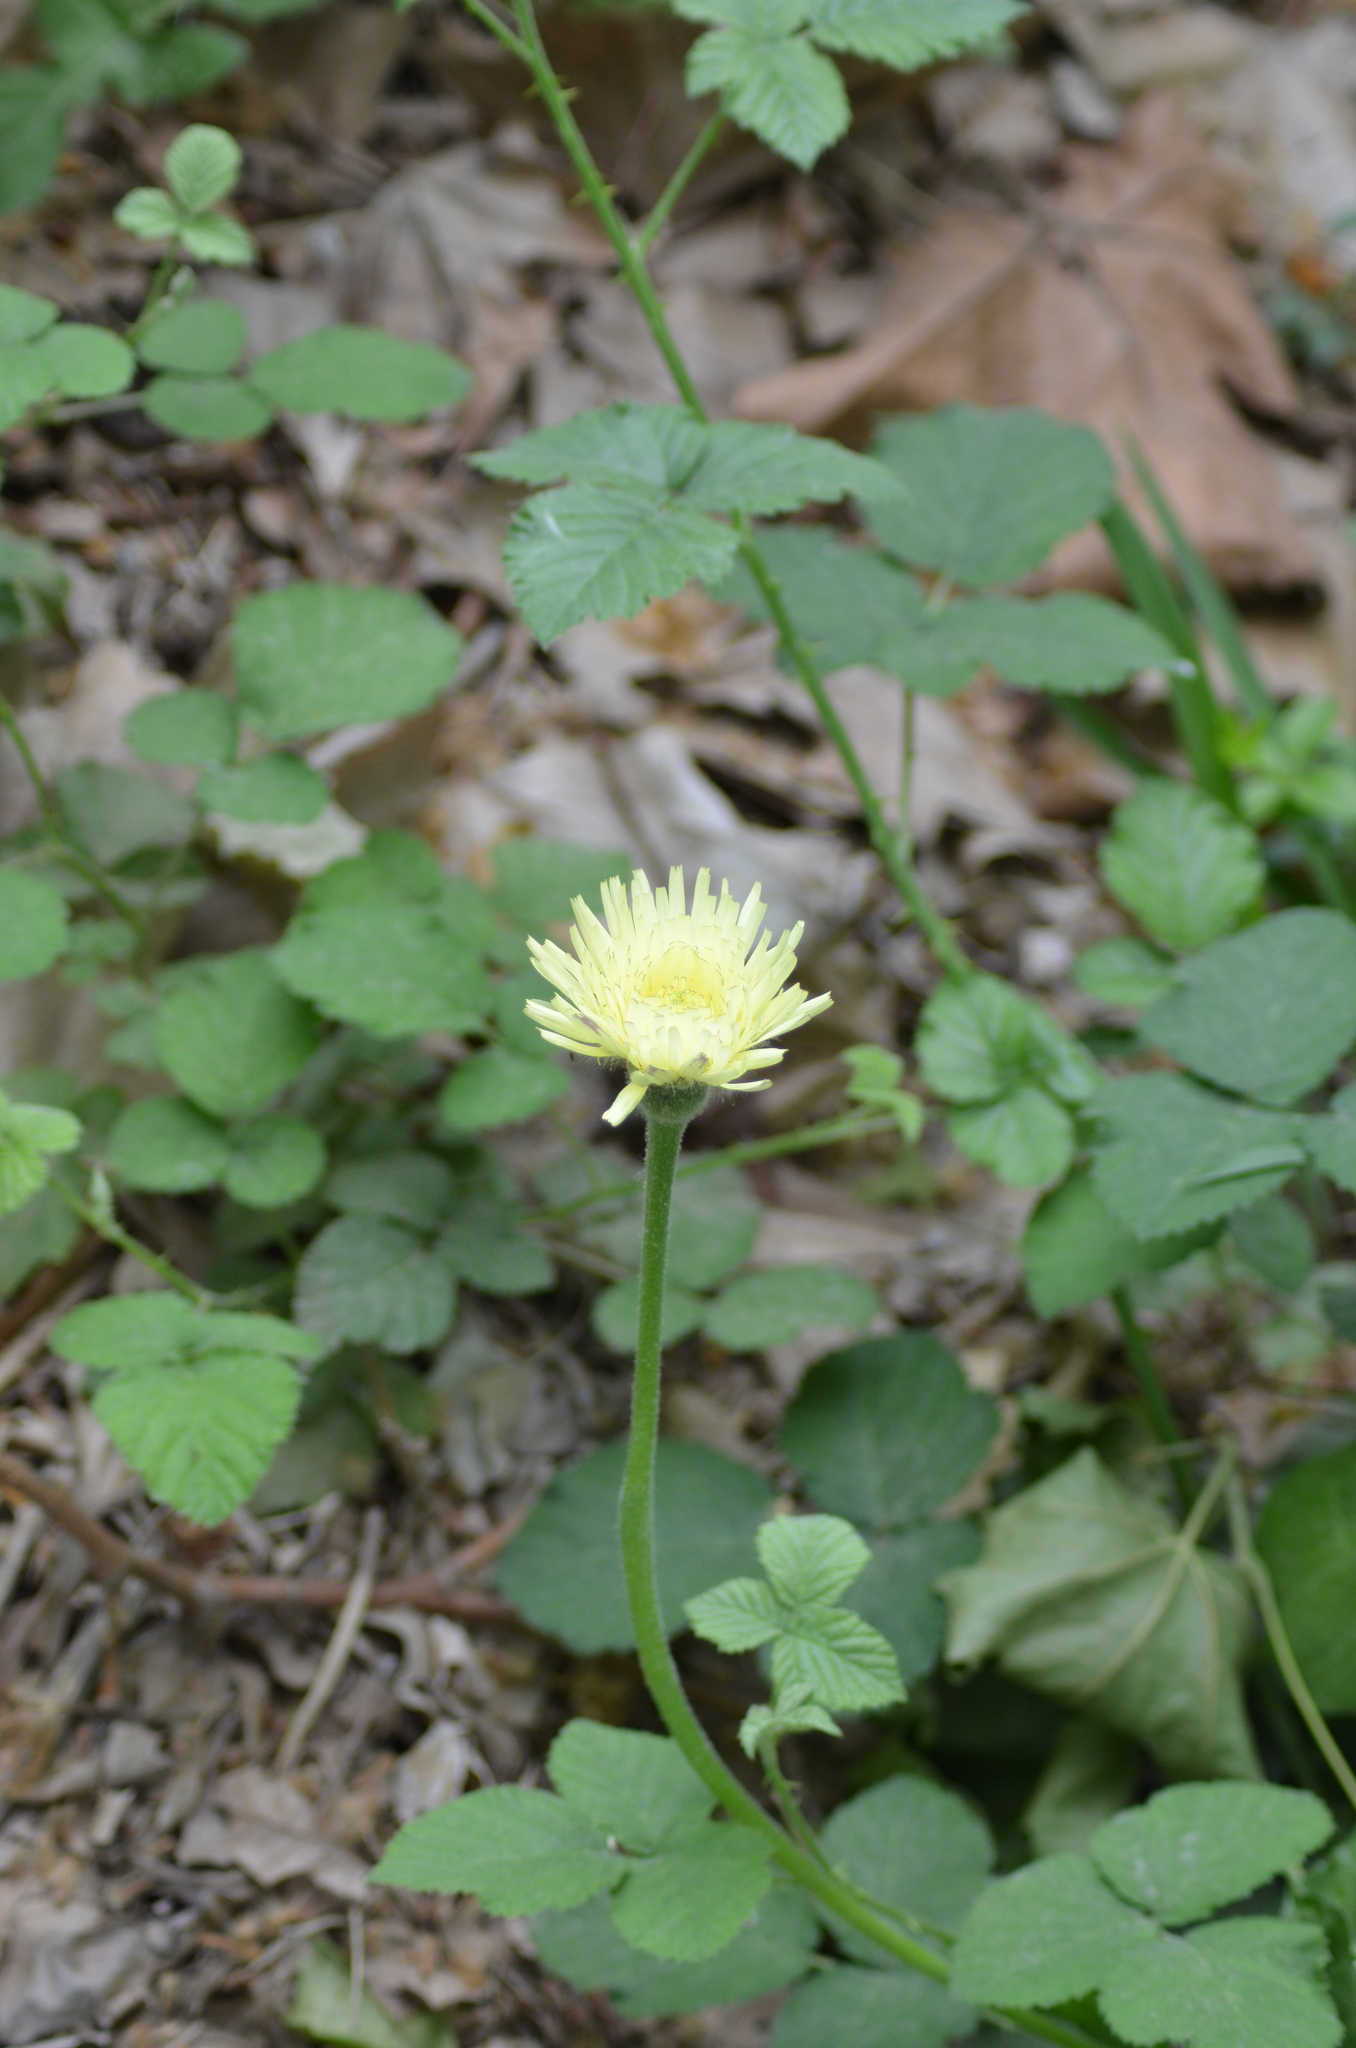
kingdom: Plantae
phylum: Tracheophyta
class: Magnoliopsida
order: Asterales
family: Asteraceae
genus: Urospermum
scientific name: Urospermum dalechampii
